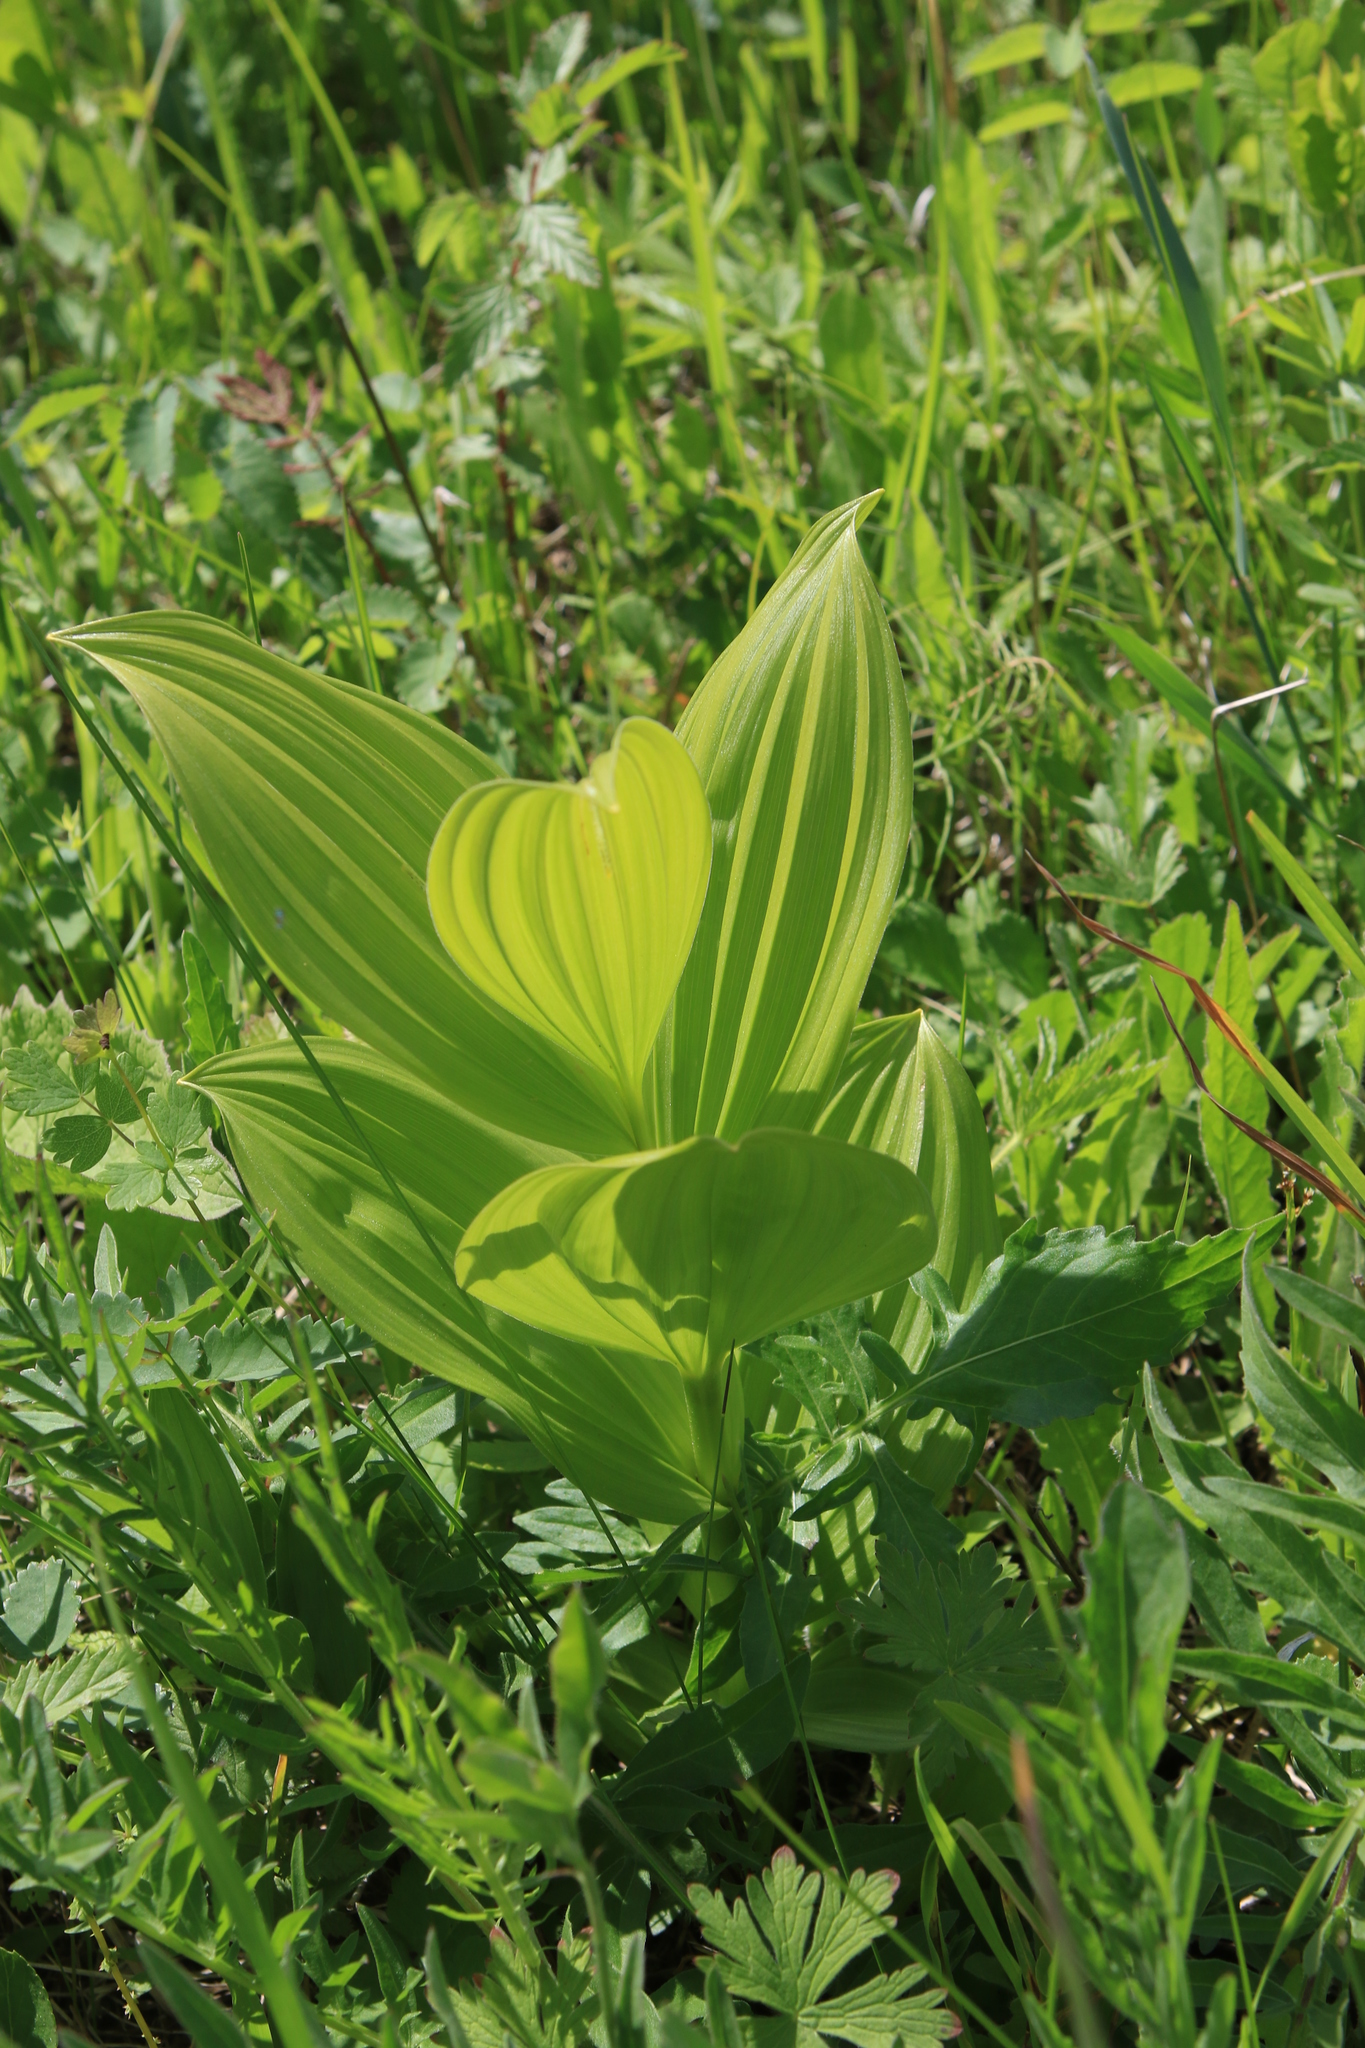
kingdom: Plantae
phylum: Tracheophyta
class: Liliopsida
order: Liliales
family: Melanthiaceae
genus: Veratrum
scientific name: Veratrum lobelianum
